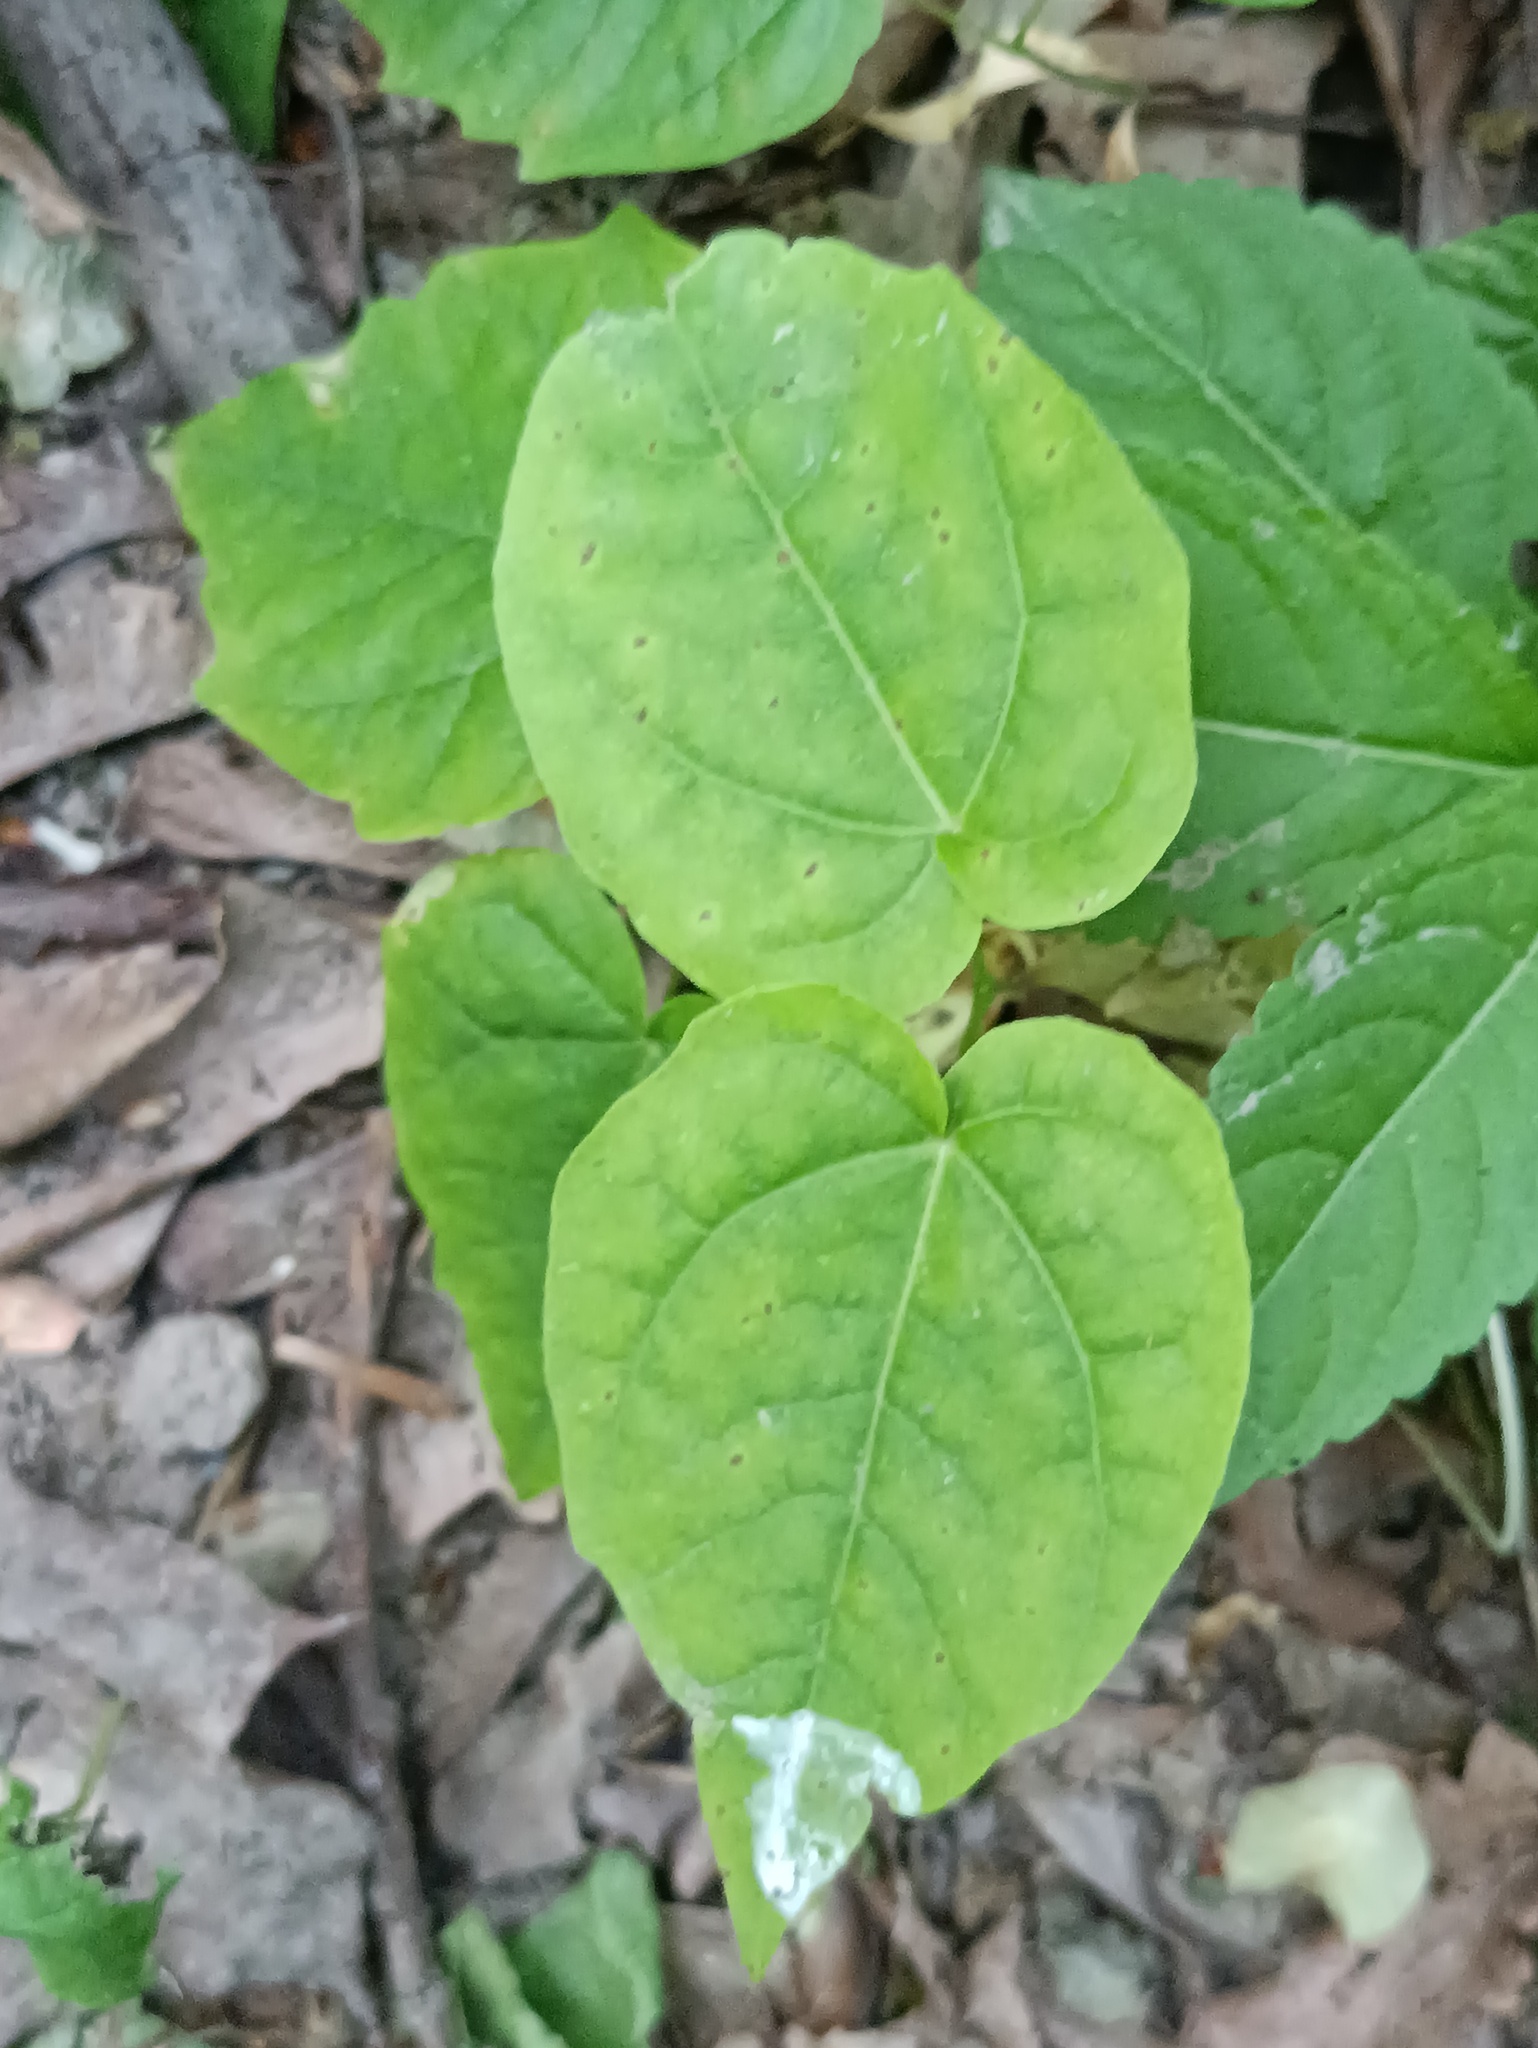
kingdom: Plantae
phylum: Tracheophyta
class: Magnoliopsida
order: Malpighiales
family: Salicaceae
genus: Populus
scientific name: Populus tremula
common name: European aspen
